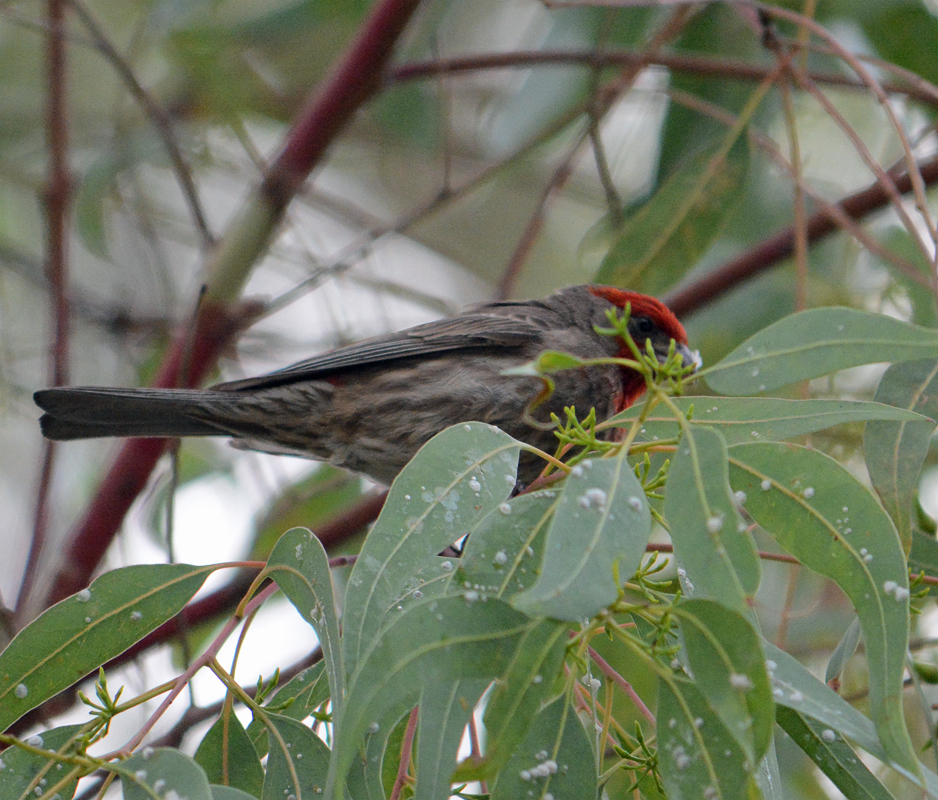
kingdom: Animalia
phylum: Chordata
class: Aves
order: Passeriformes
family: Fringillidae
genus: Haemorhous
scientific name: Haemorhous mexicanus
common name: House finch
